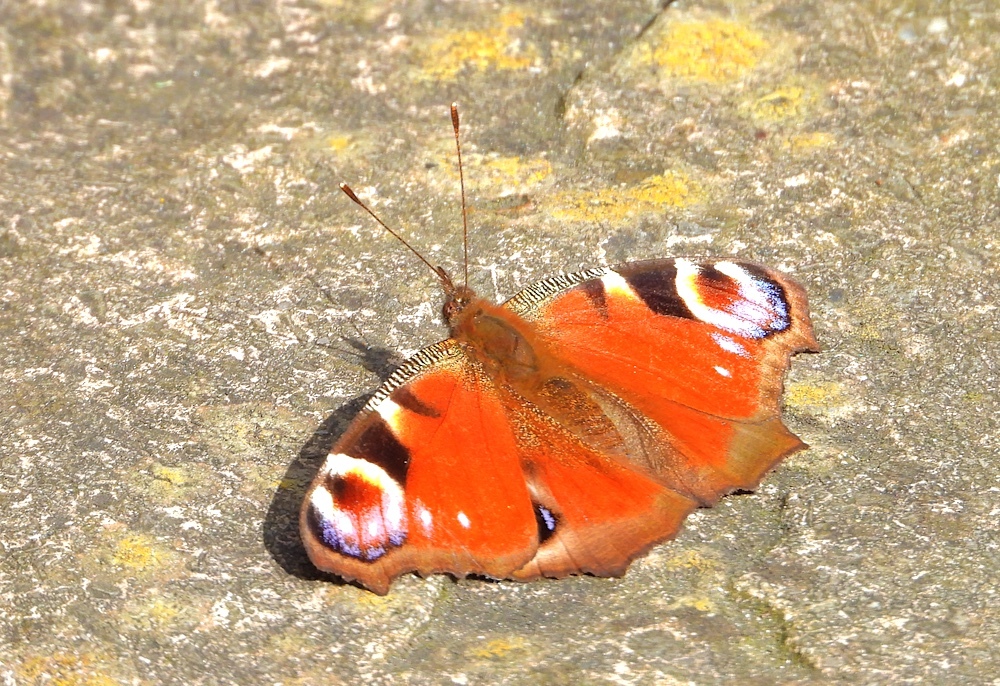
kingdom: Animalia
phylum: Arthropoda
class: Insecta
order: Lepidoptera
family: Nymphalidae
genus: Aglais
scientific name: Aglais io
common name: Peacock
